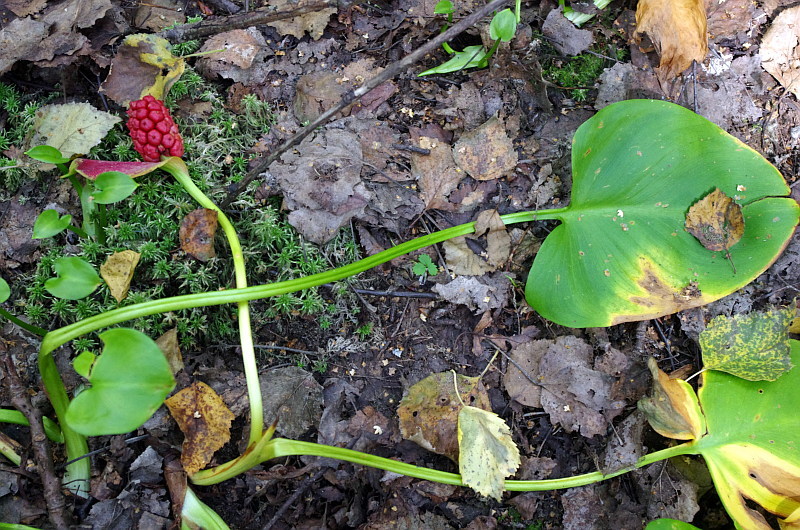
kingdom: Plantae
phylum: Tracheophyta
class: Liliopsida
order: Alismatales
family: Araceae
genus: Calla
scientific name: Calla palustris
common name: Bog arum
